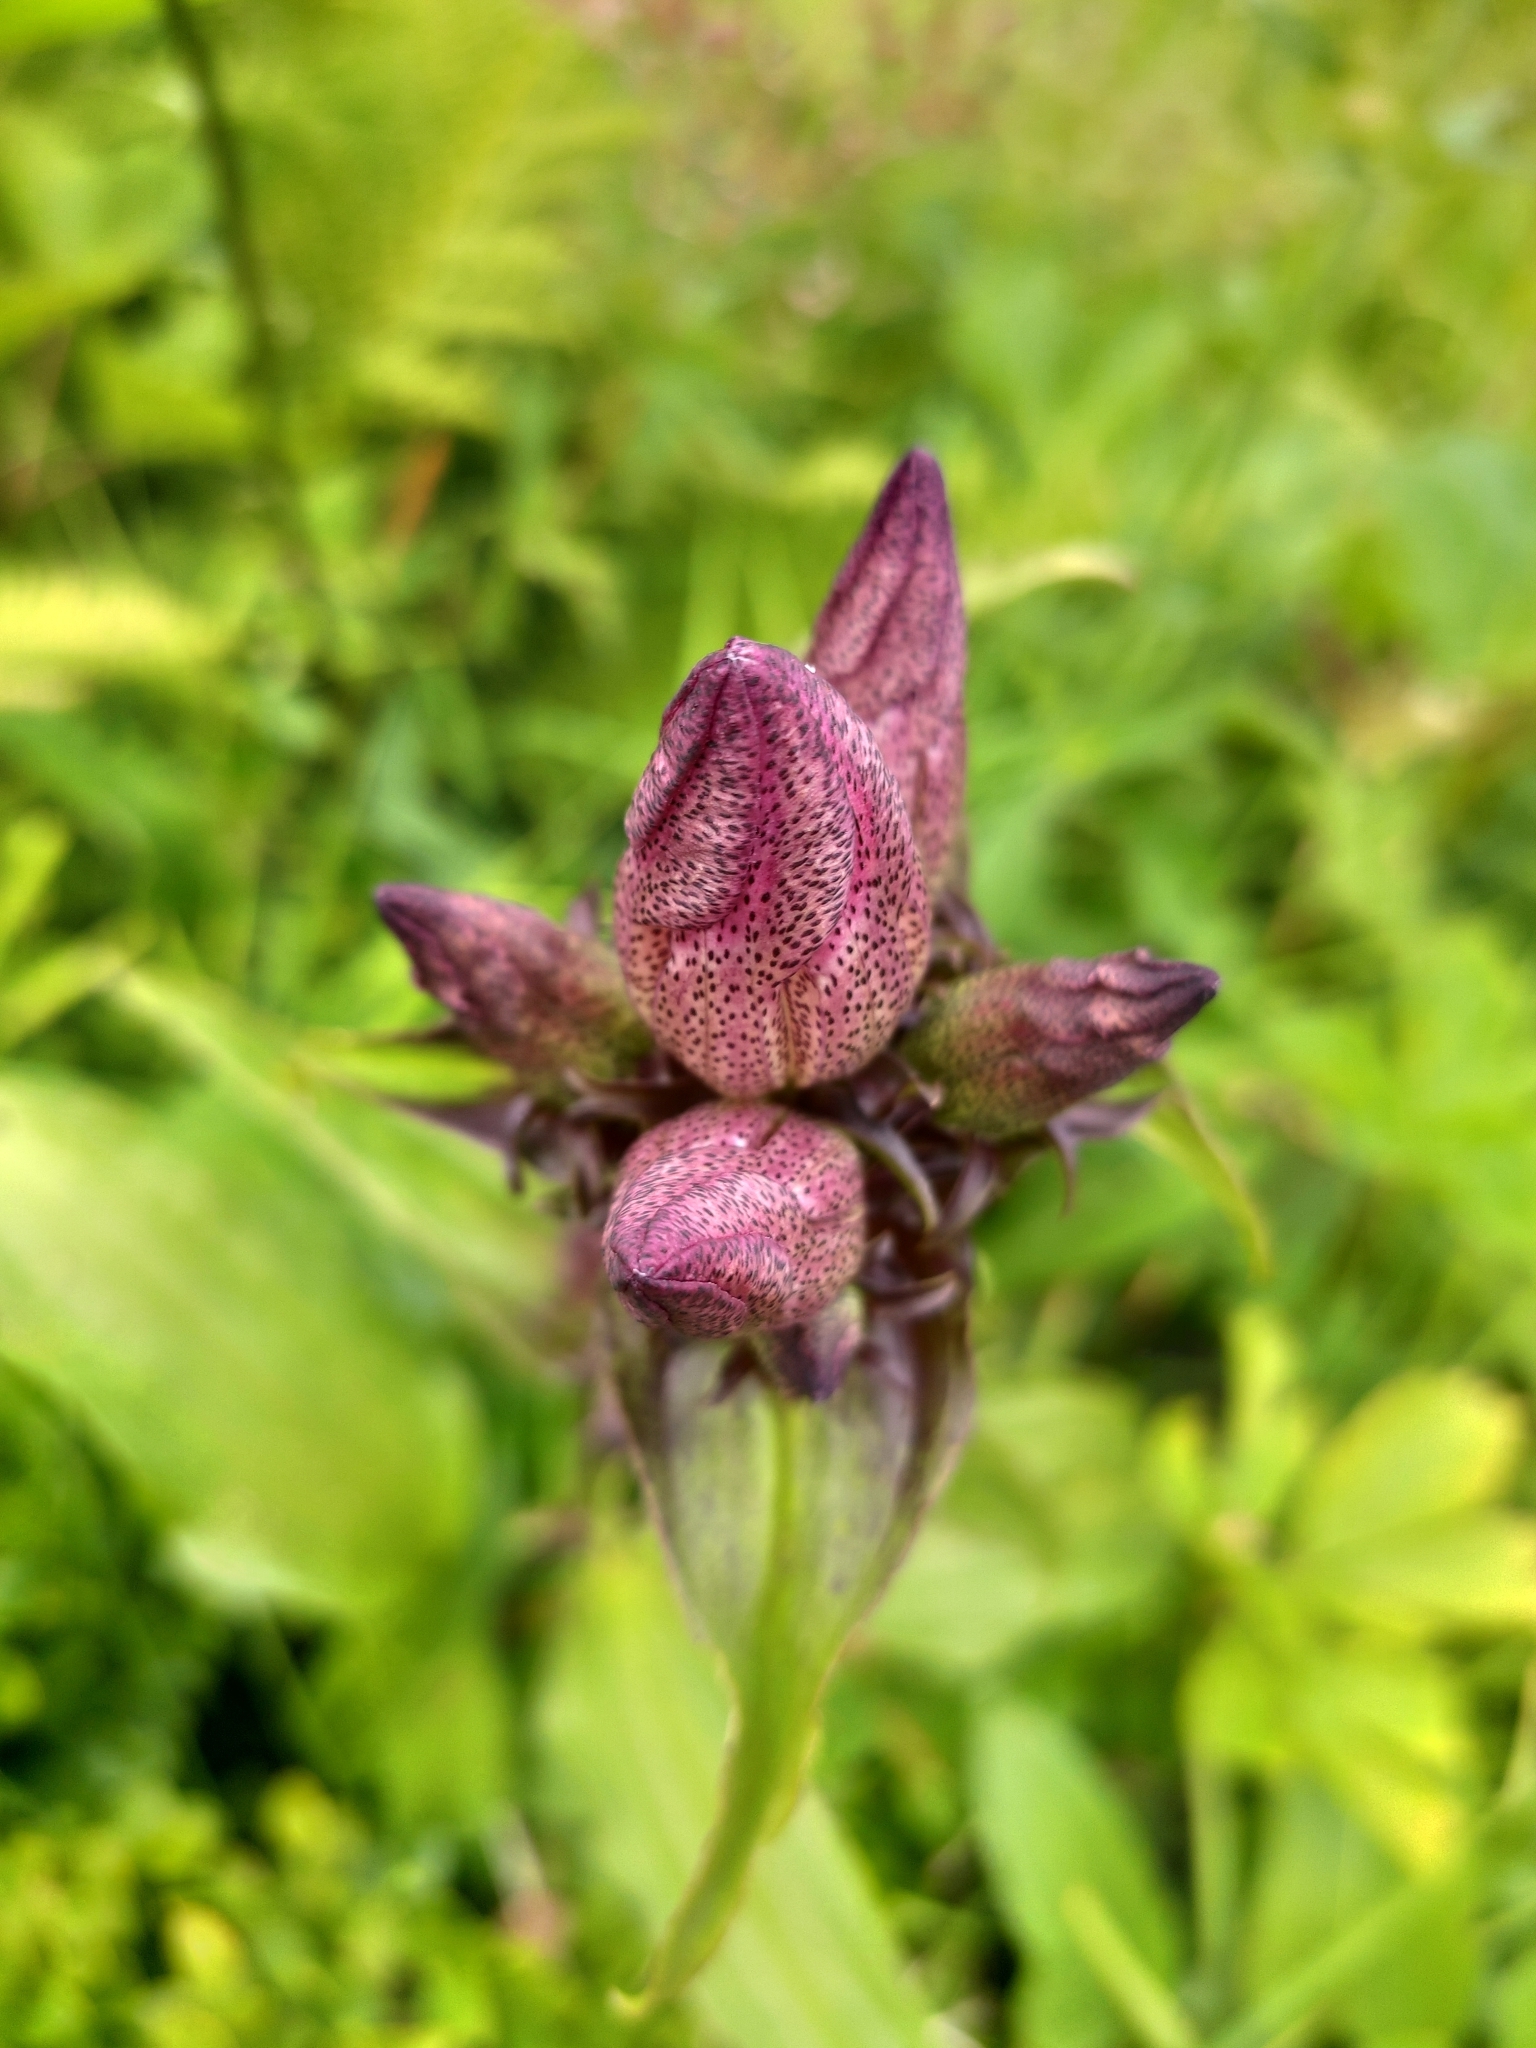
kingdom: Plantae
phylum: Tracheophyta
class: Magnoliopsida
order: Gentianales
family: Gentianaceae
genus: Gentiana
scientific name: Gentiana pannonica
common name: Hungarian gentian
